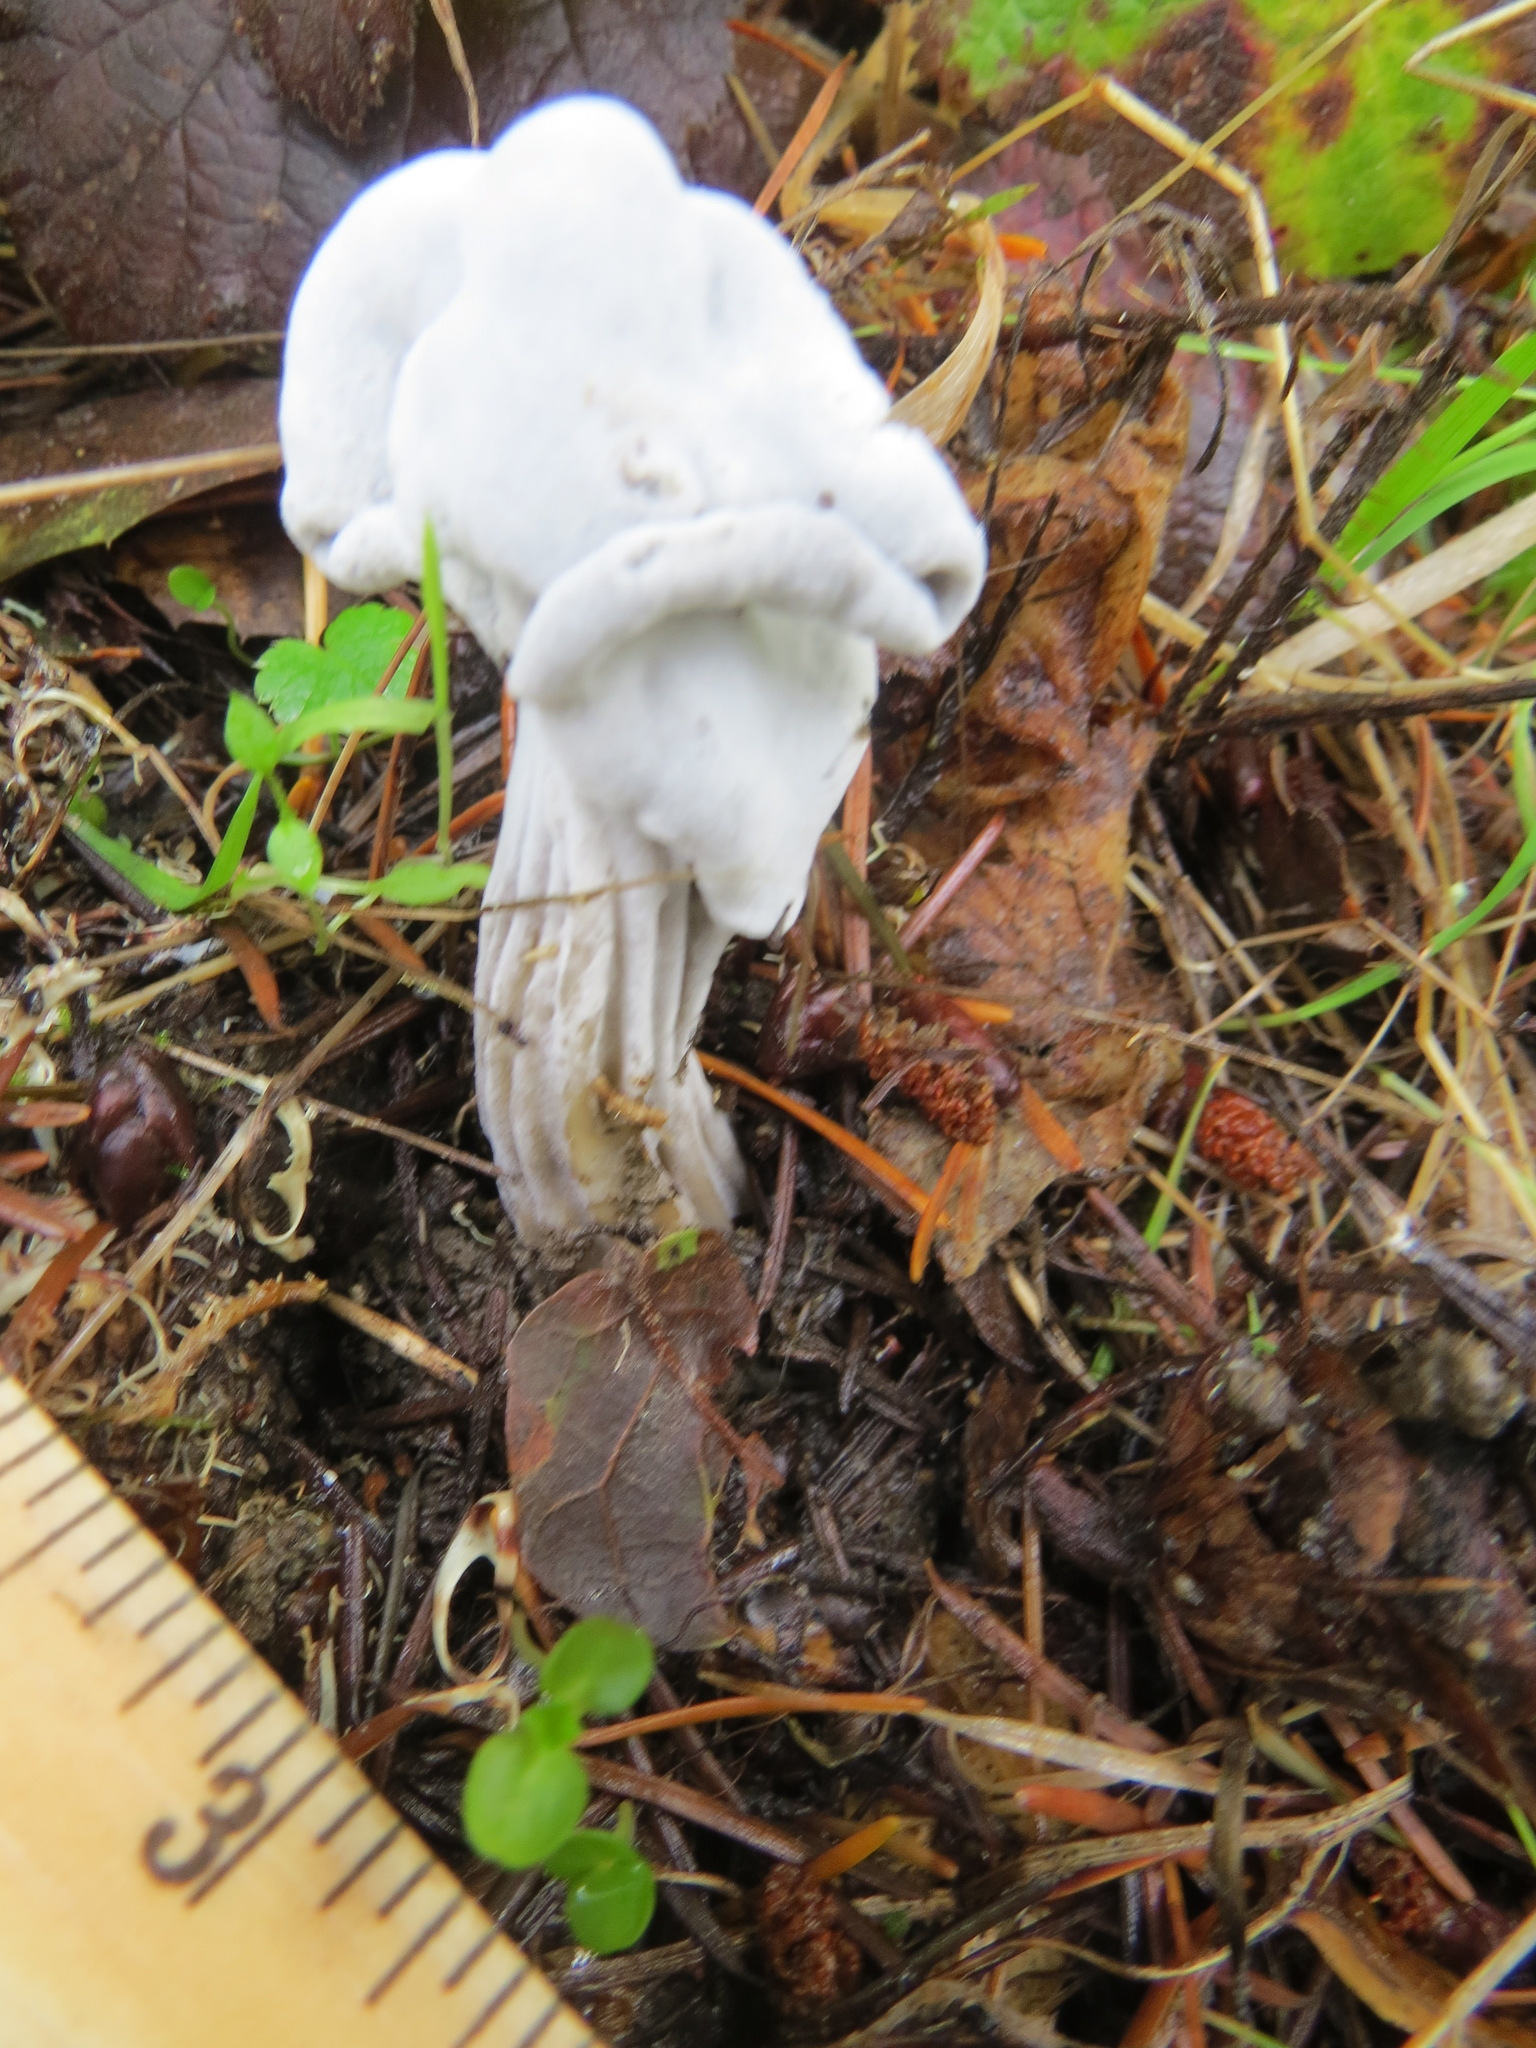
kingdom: Fungi
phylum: Ascomycota
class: Sordariomycetes
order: Hypocreales
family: Hypocreaceae
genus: Hypomyces
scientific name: Hypomyces cervinus
